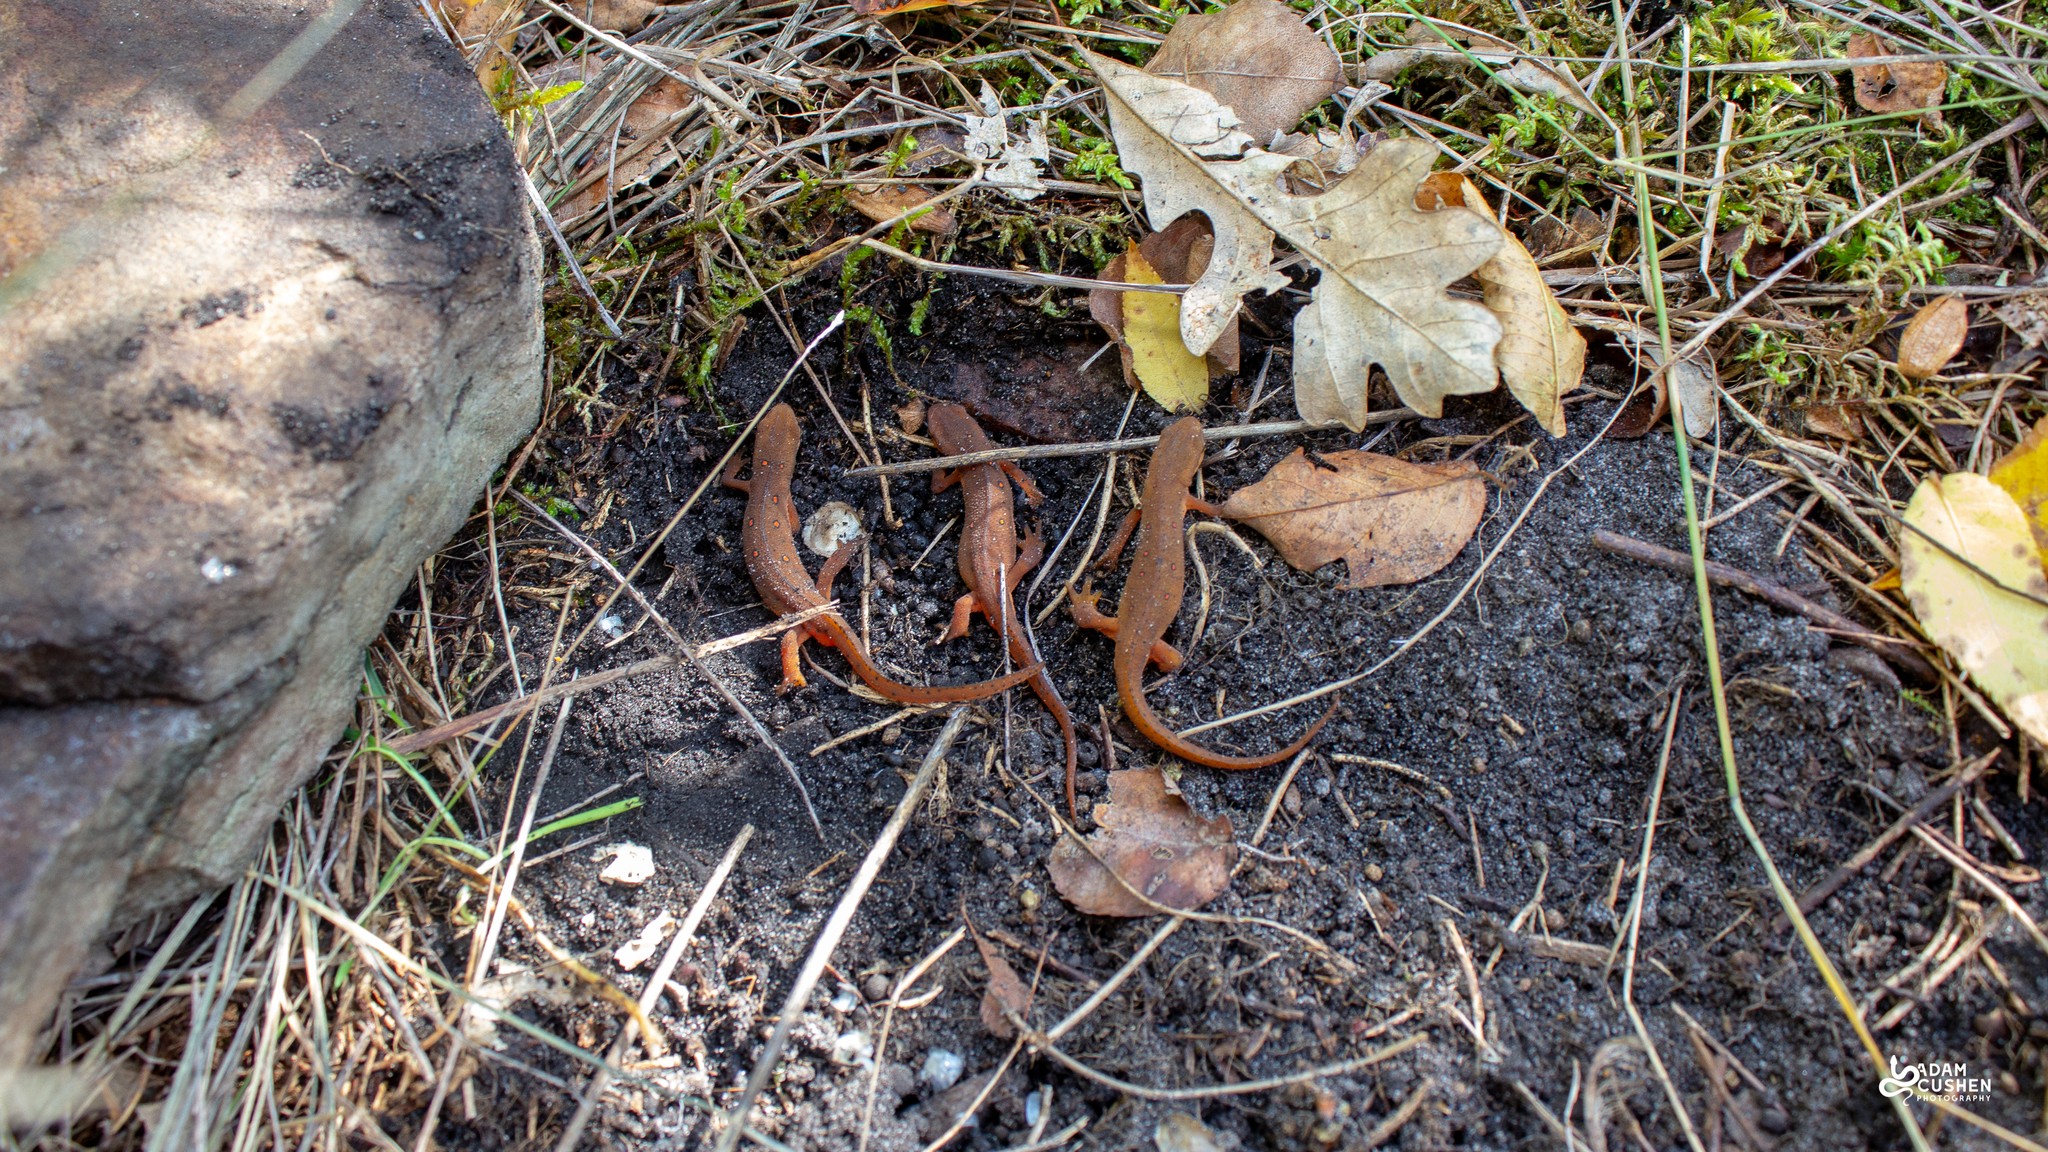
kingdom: Animalia
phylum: Chordata
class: Amphibia
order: Caudata
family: Salamandridae
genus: Notophthalmus
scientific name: Notophthalmus viridescens
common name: Eastern newt
